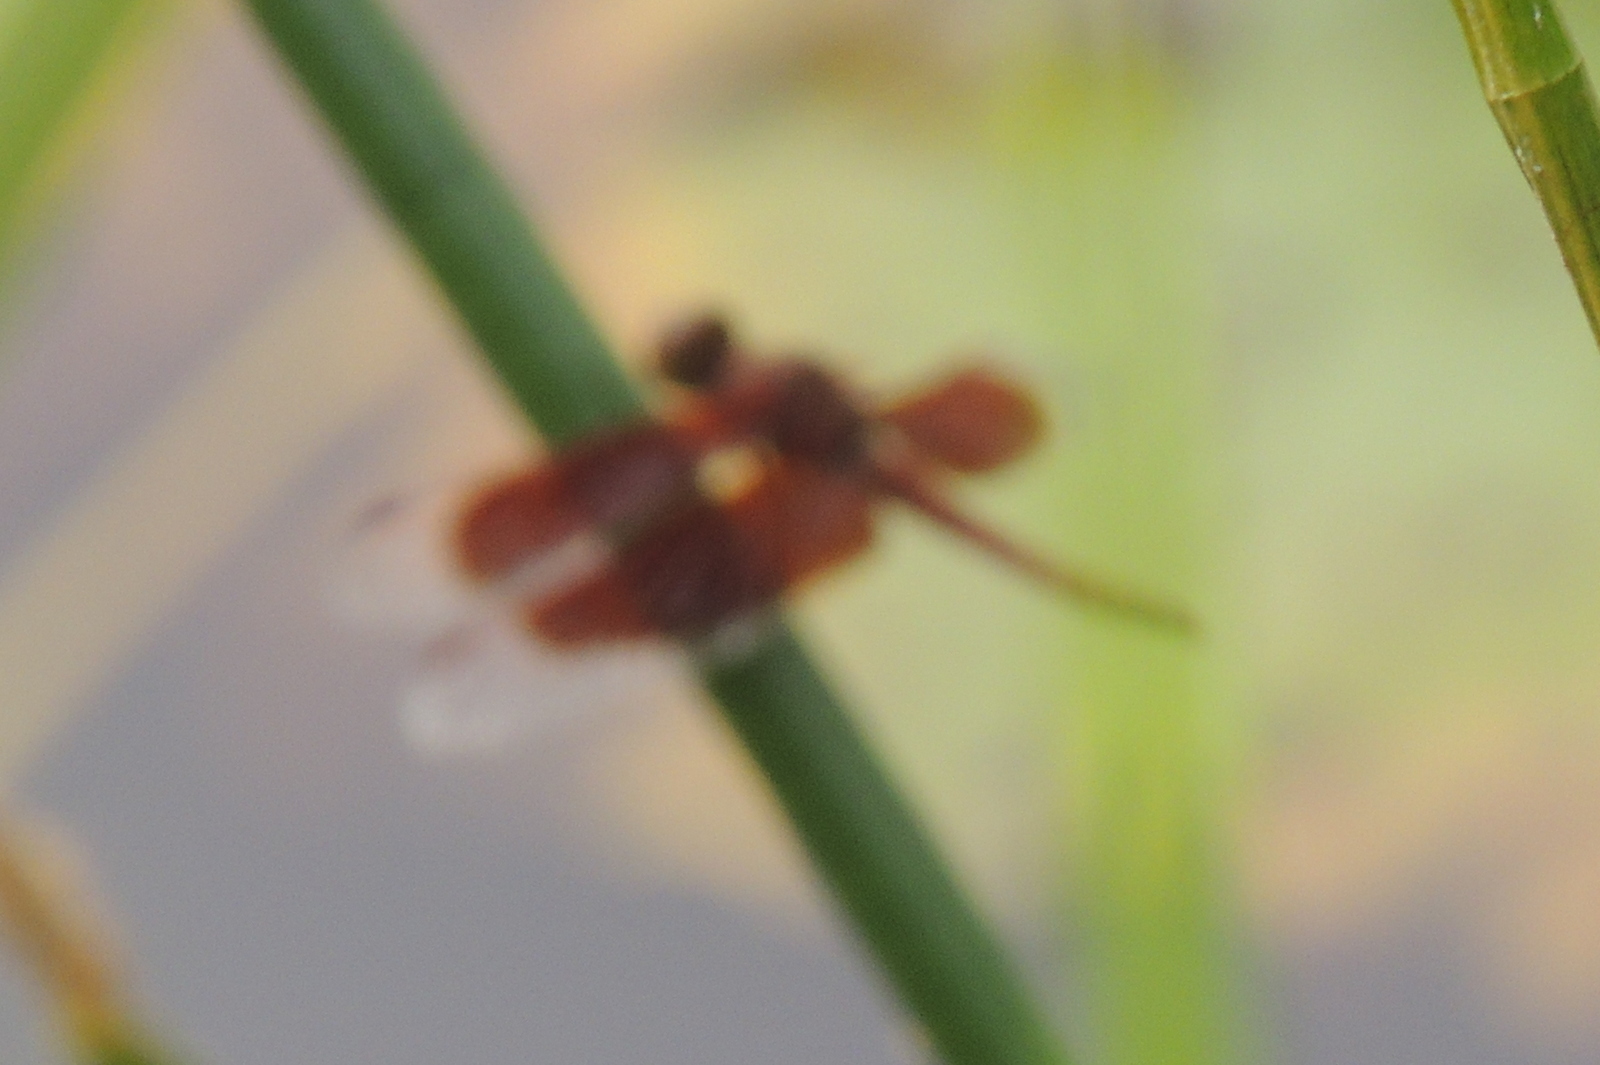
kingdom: Animalia
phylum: Arthropoda
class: Insecta
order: Odonata
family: Libellulidae
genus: Neurothemis
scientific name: Neurothemis fluctuans
